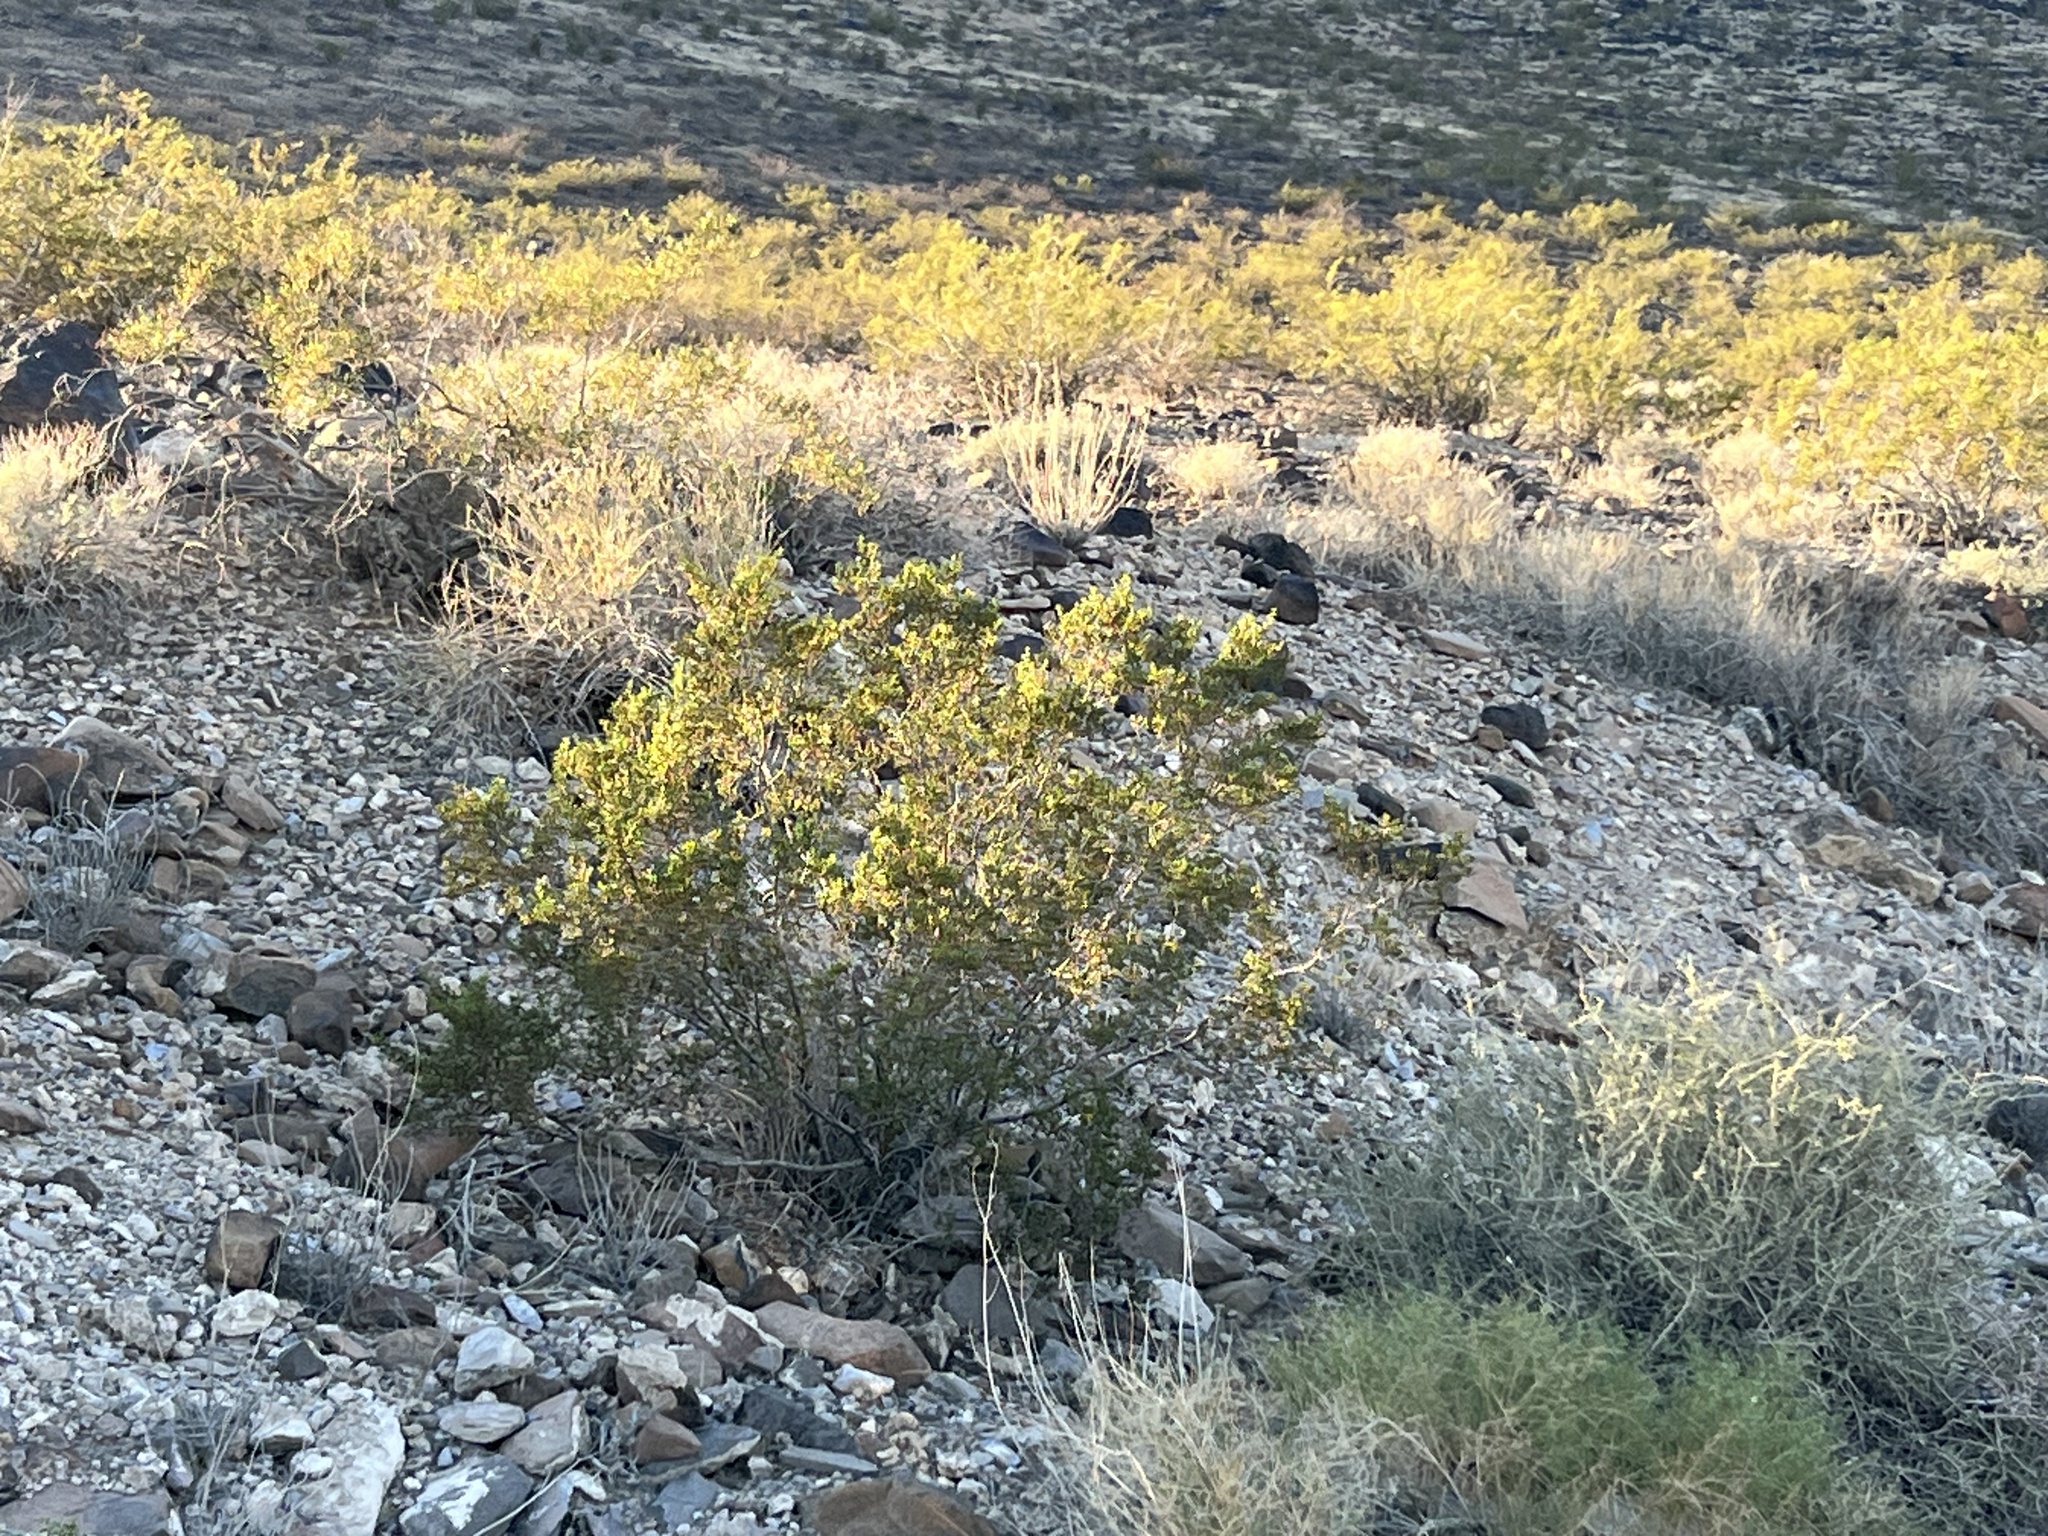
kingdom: Plantae
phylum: Tracheophyta
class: Magnoliopsida
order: Zygophyllales
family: Zygophyllaceae
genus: Larrea
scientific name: Larrea tridentata
